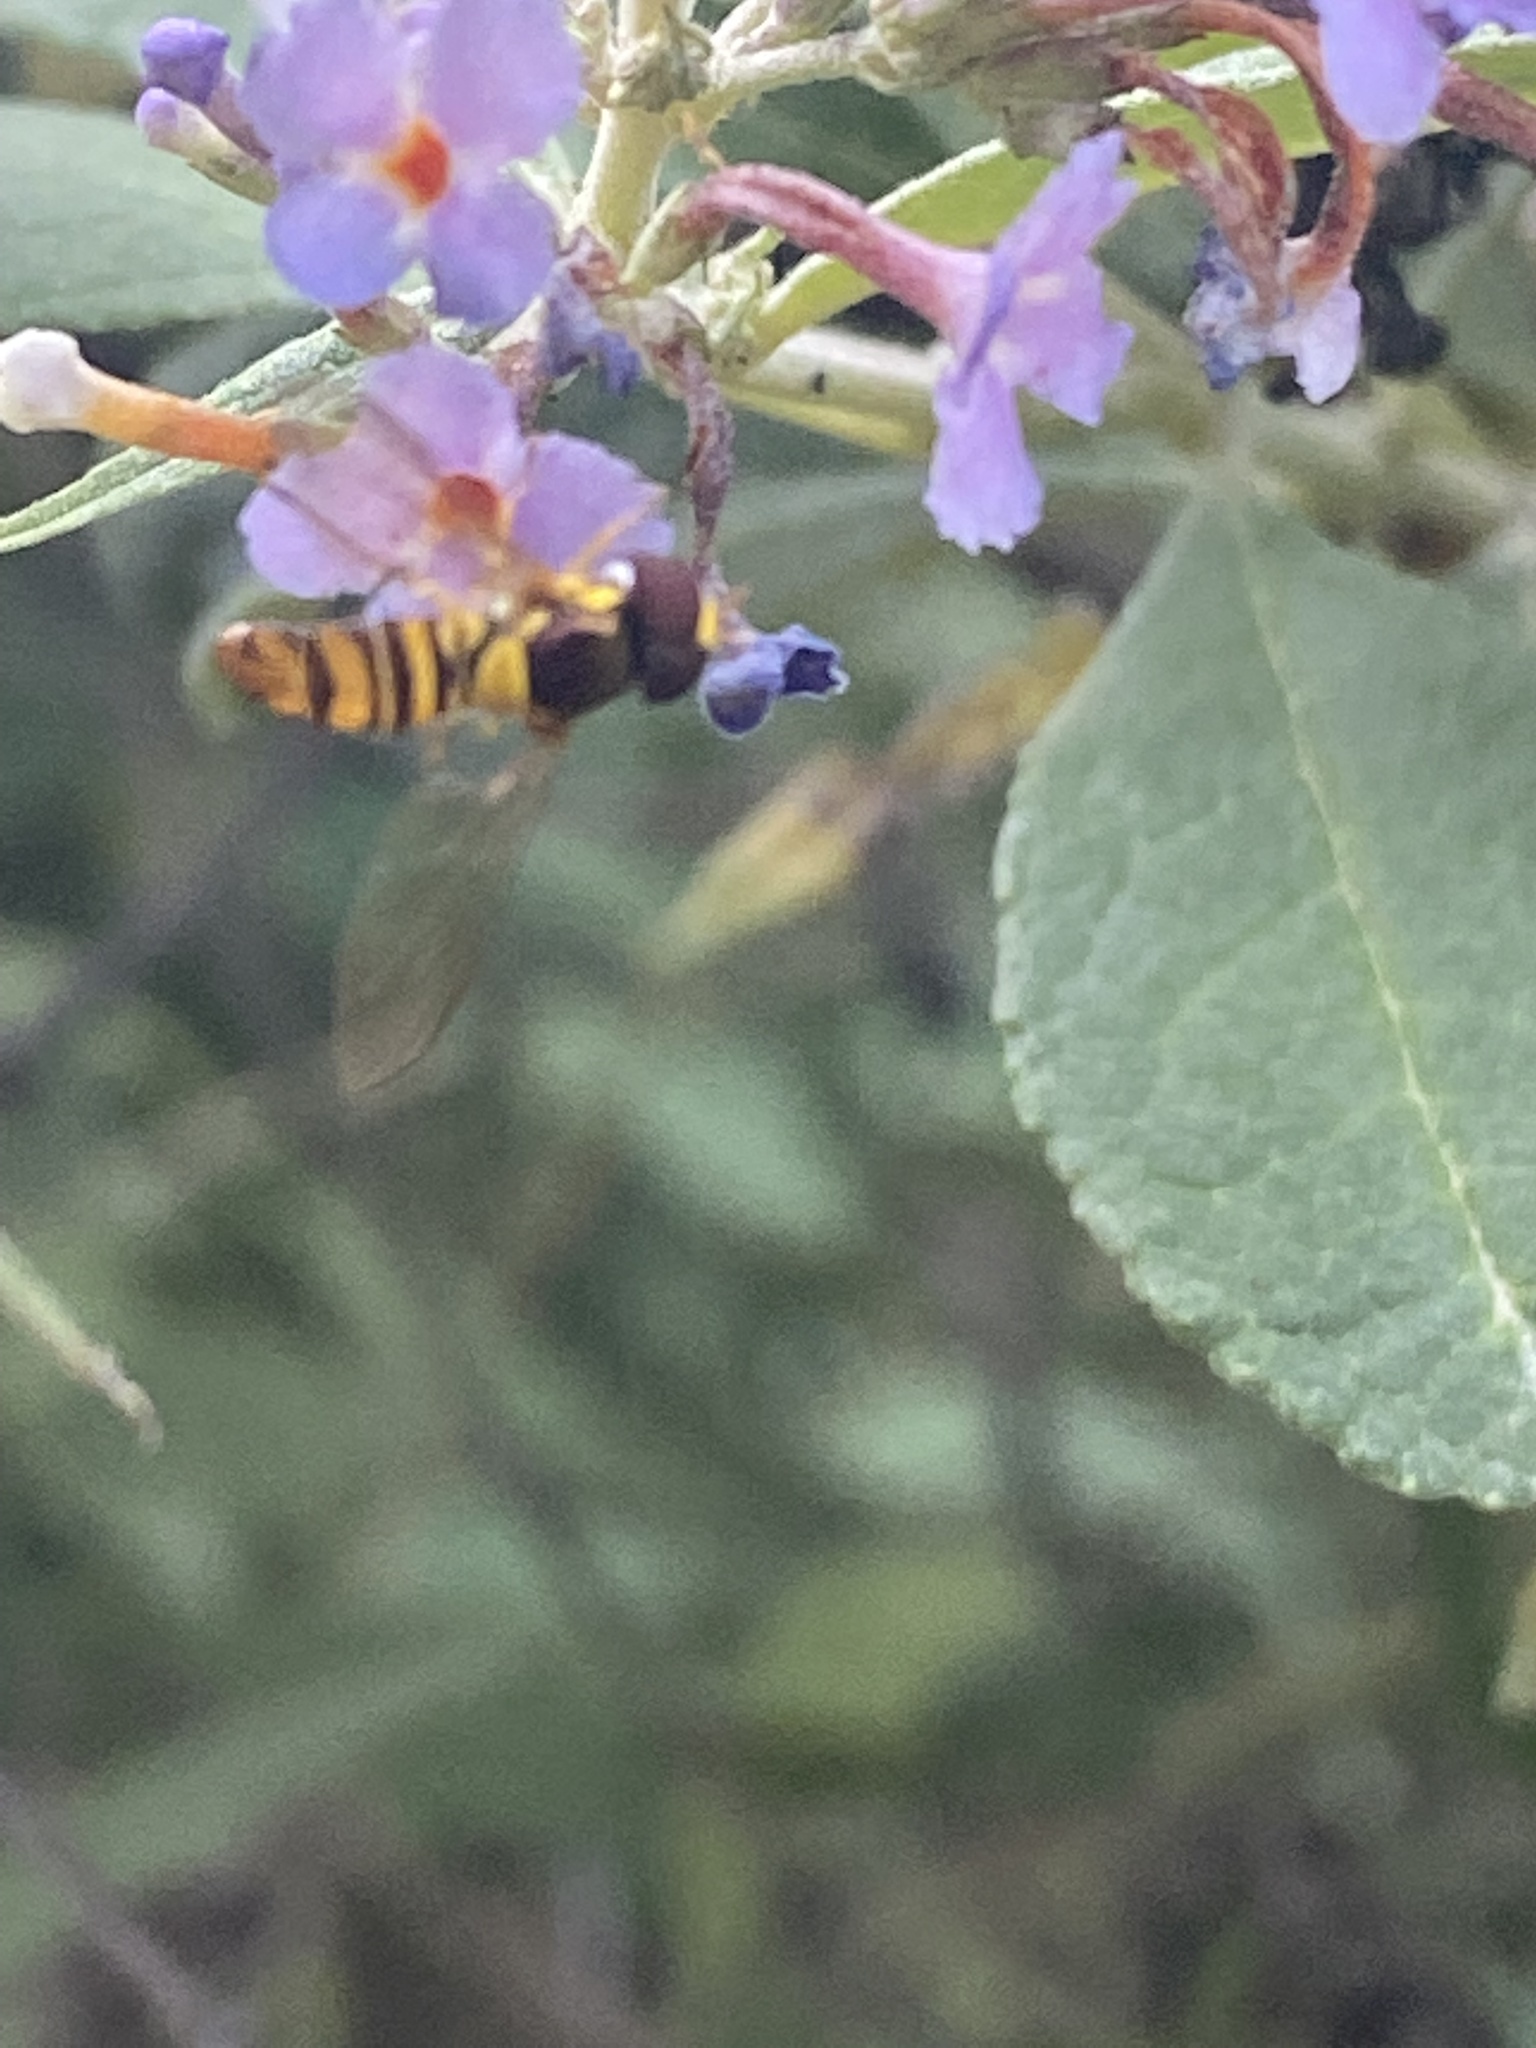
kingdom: Animalia
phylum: Arthropoda
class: Insecta
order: Diptera
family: Syrphidae
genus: Allograpta
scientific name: Allograpta obliqua
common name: Common oblique syrphid
